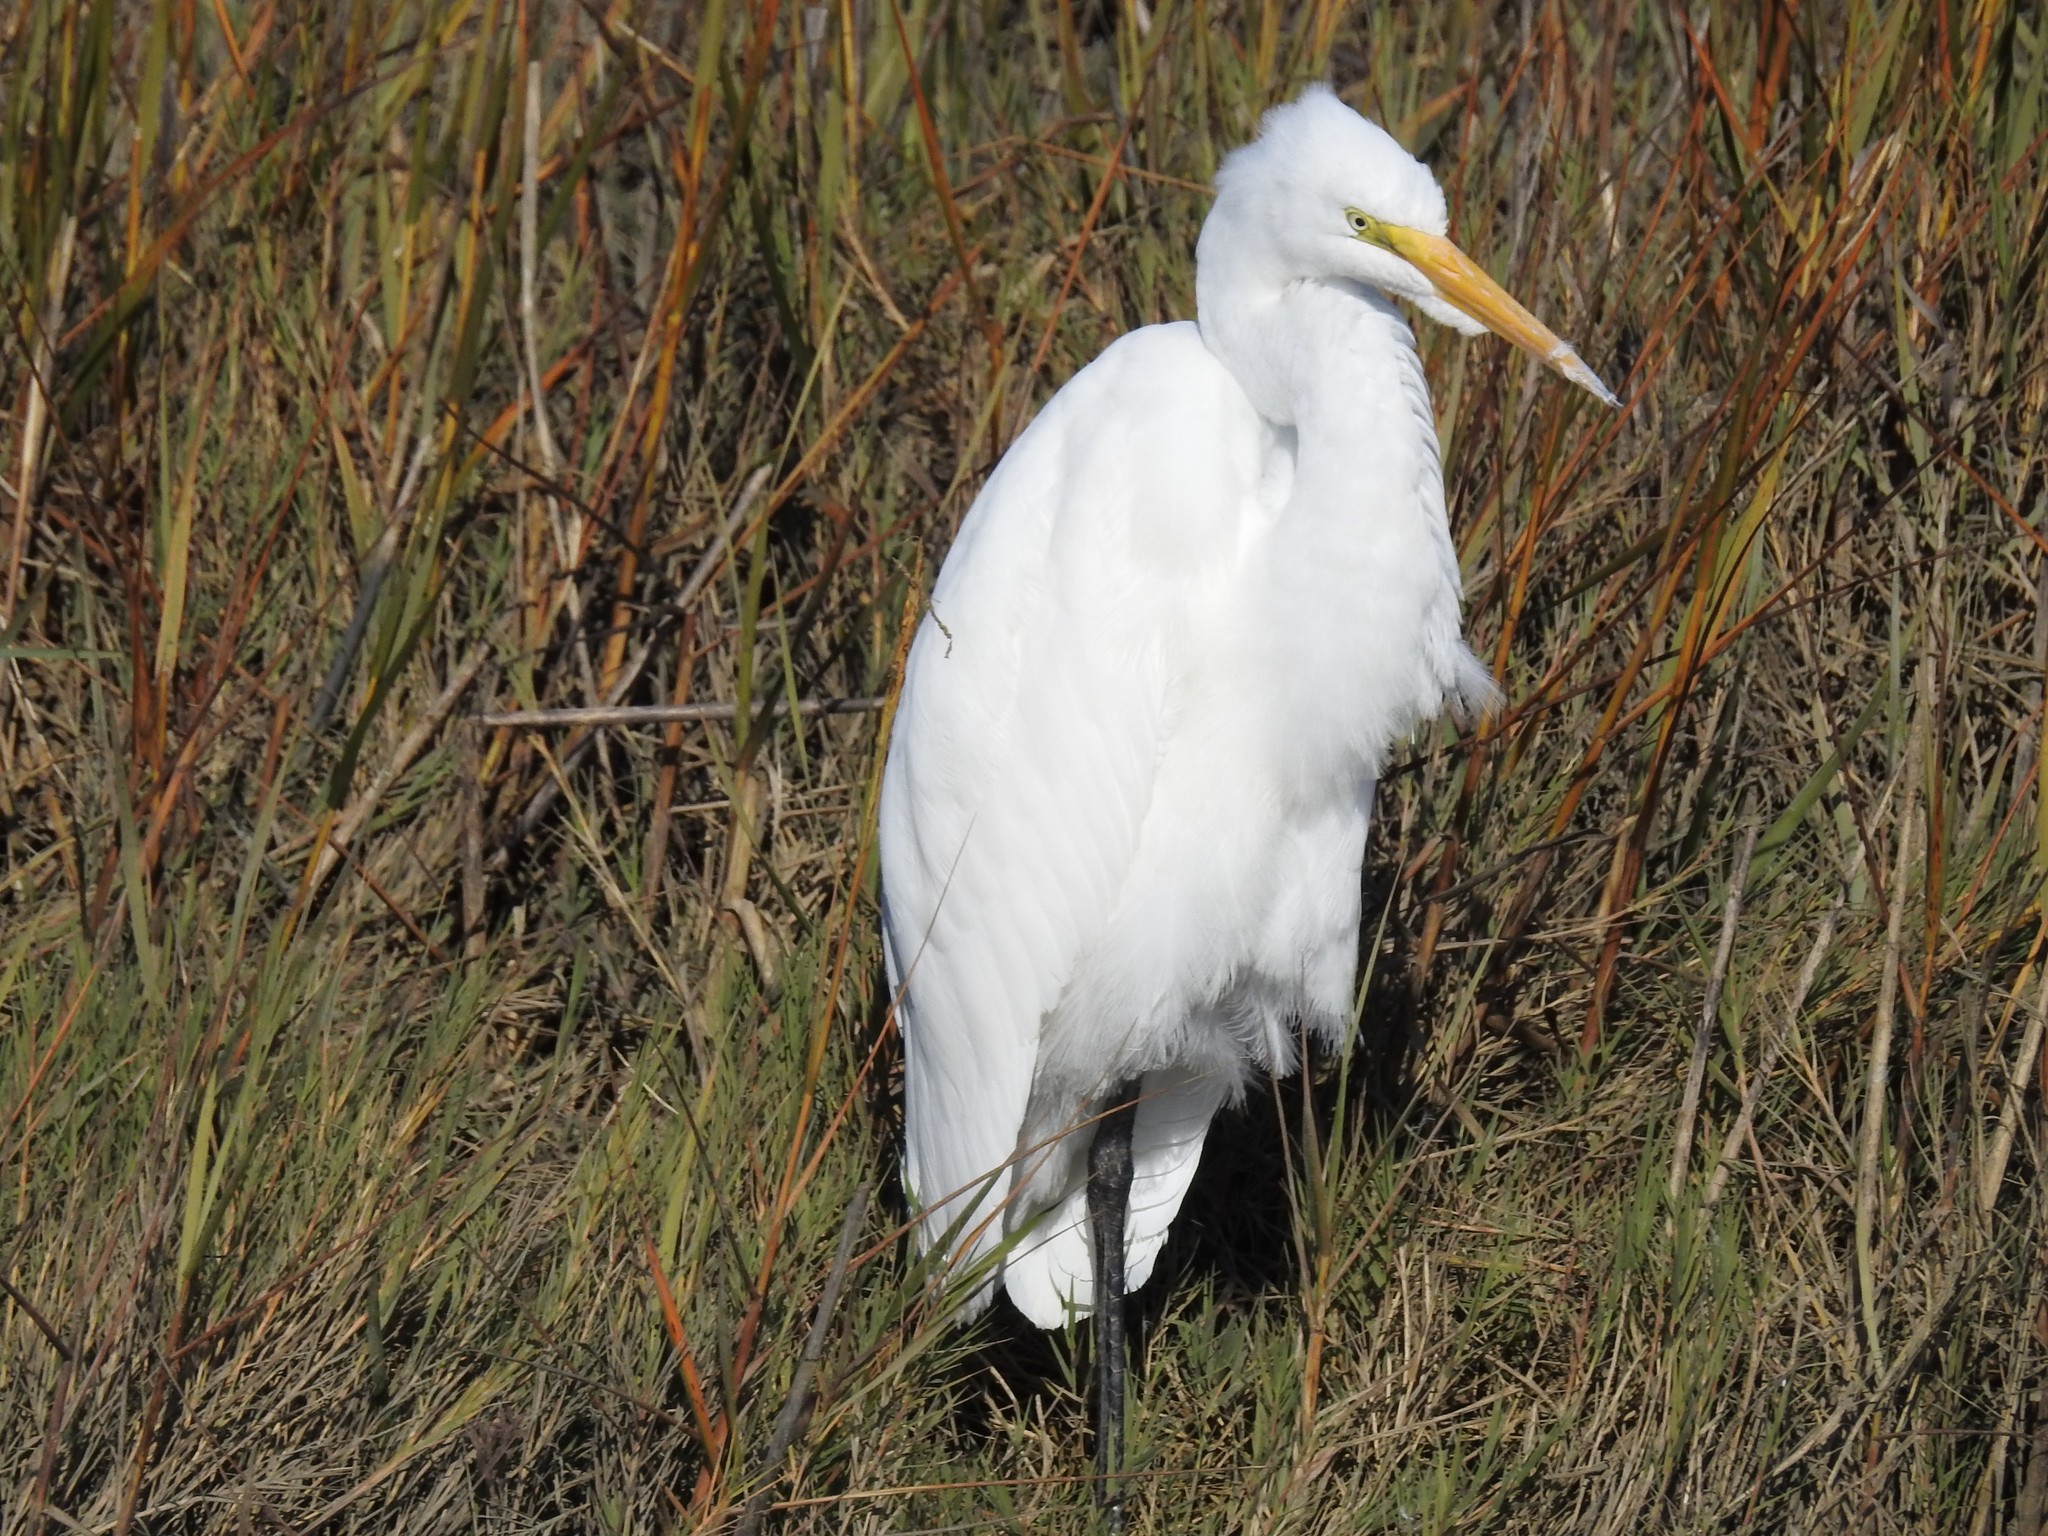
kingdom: Animalia
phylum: Chordata
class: Aves
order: Pelecaniformes
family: Ardeidae
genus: Ardea
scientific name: Ardea alba
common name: Great egret
